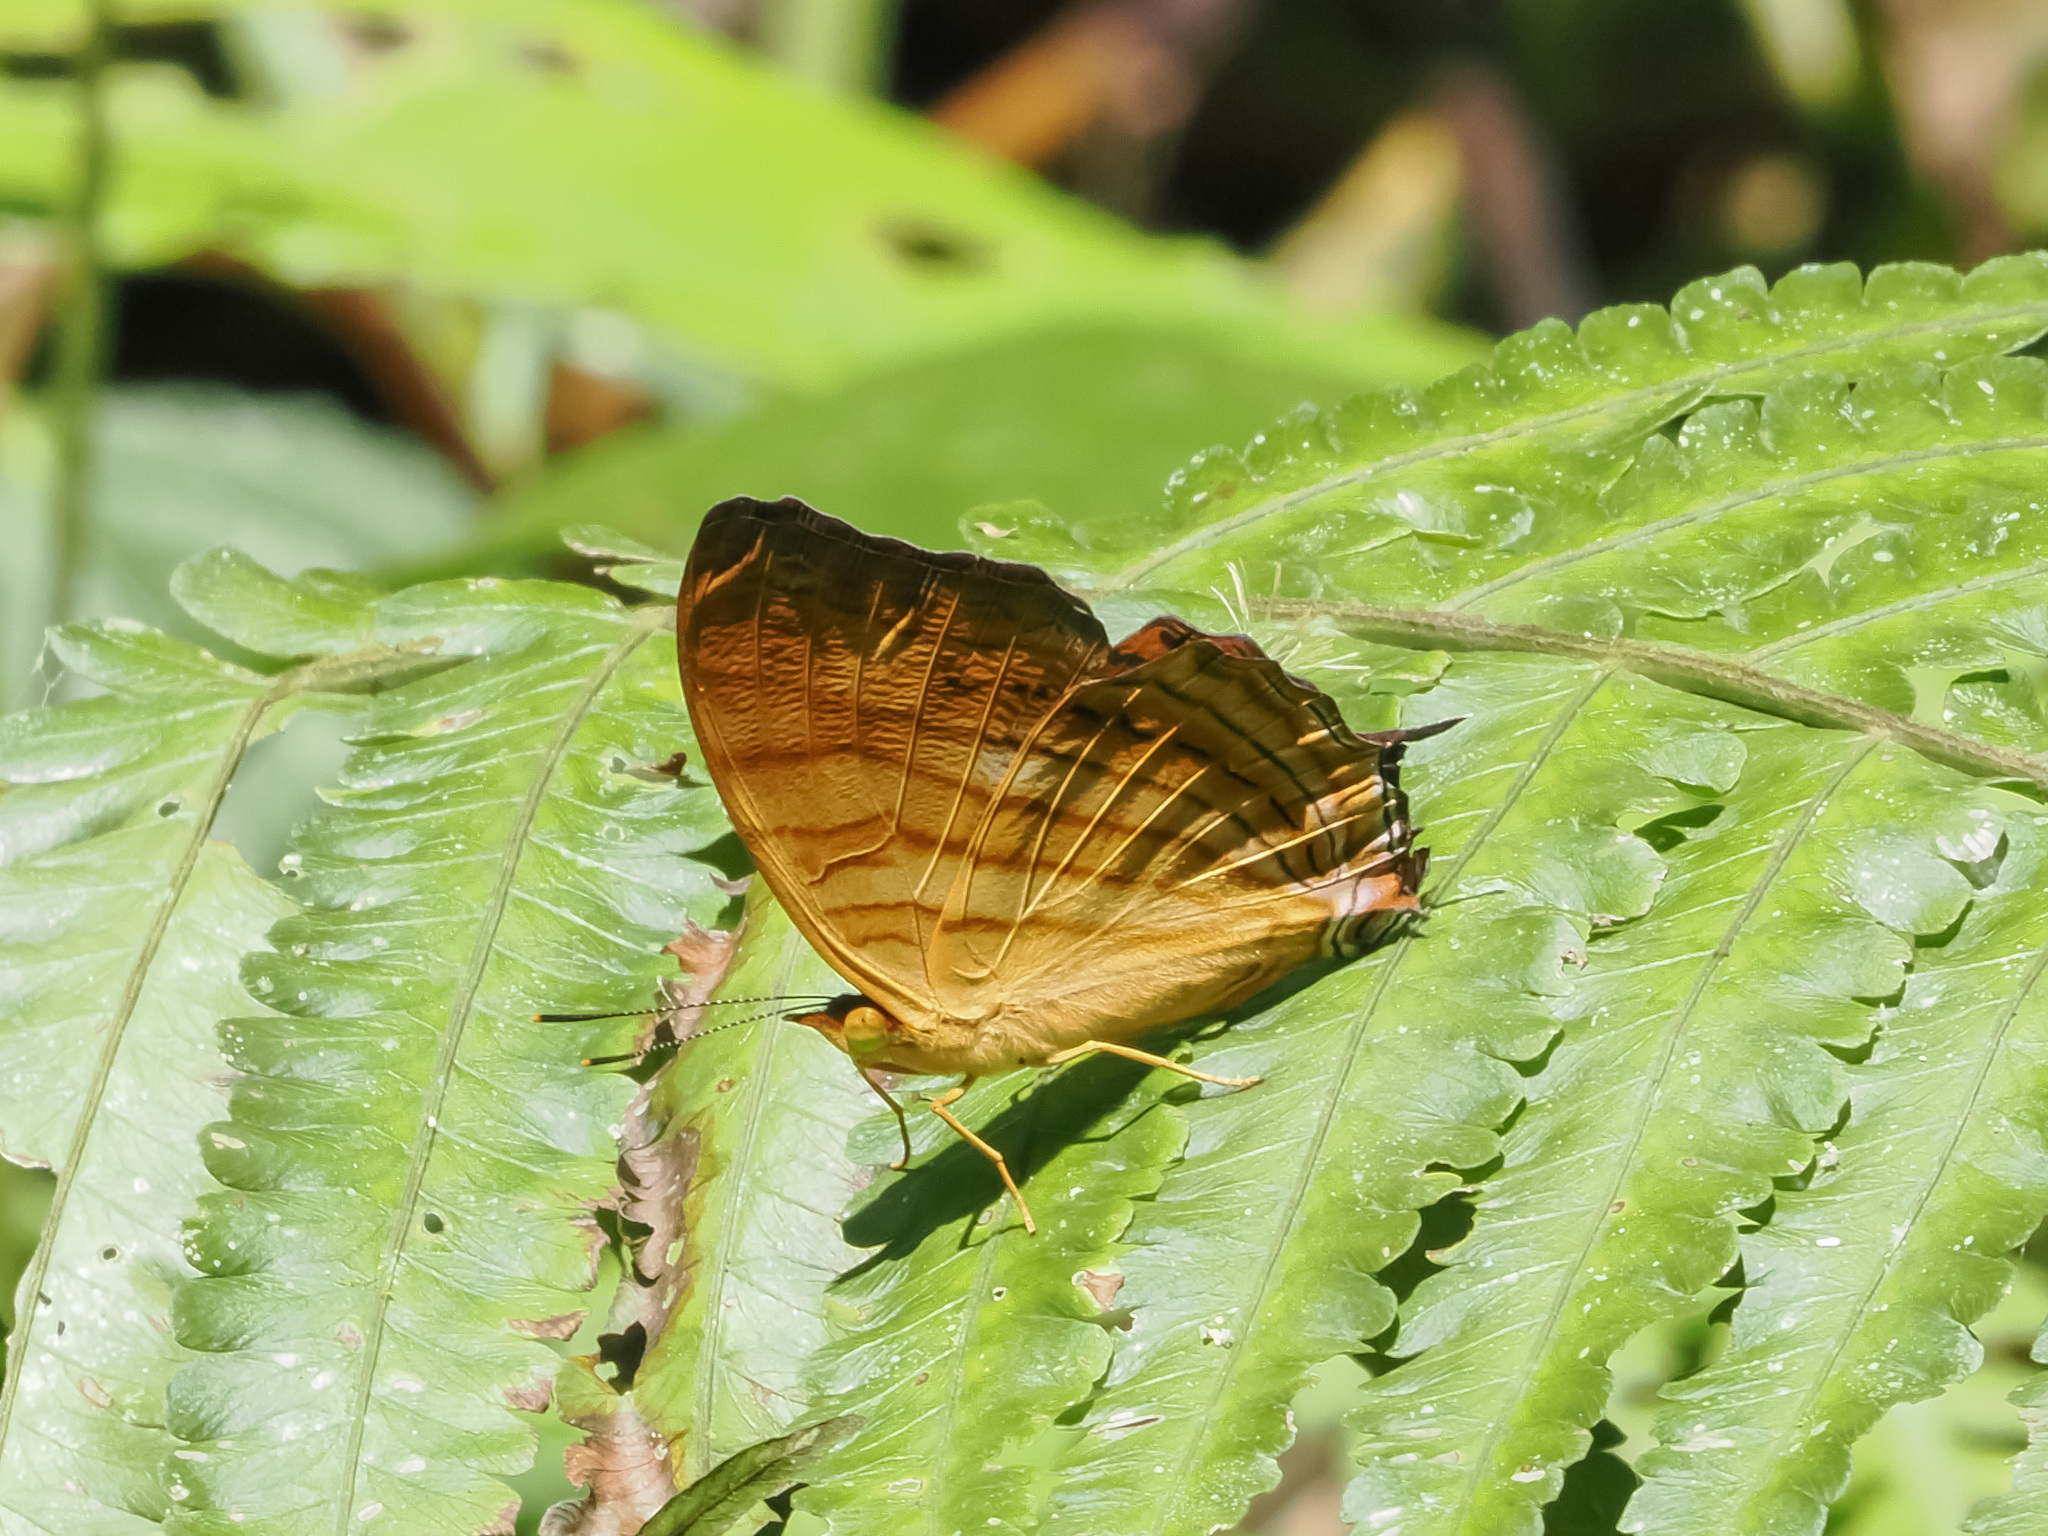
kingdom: Animalia
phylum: Arthropoda
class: Insecta
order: Lepidoptera
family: Nymphalidae
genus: Cyrestis
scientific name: Cyrestis thyonneus
